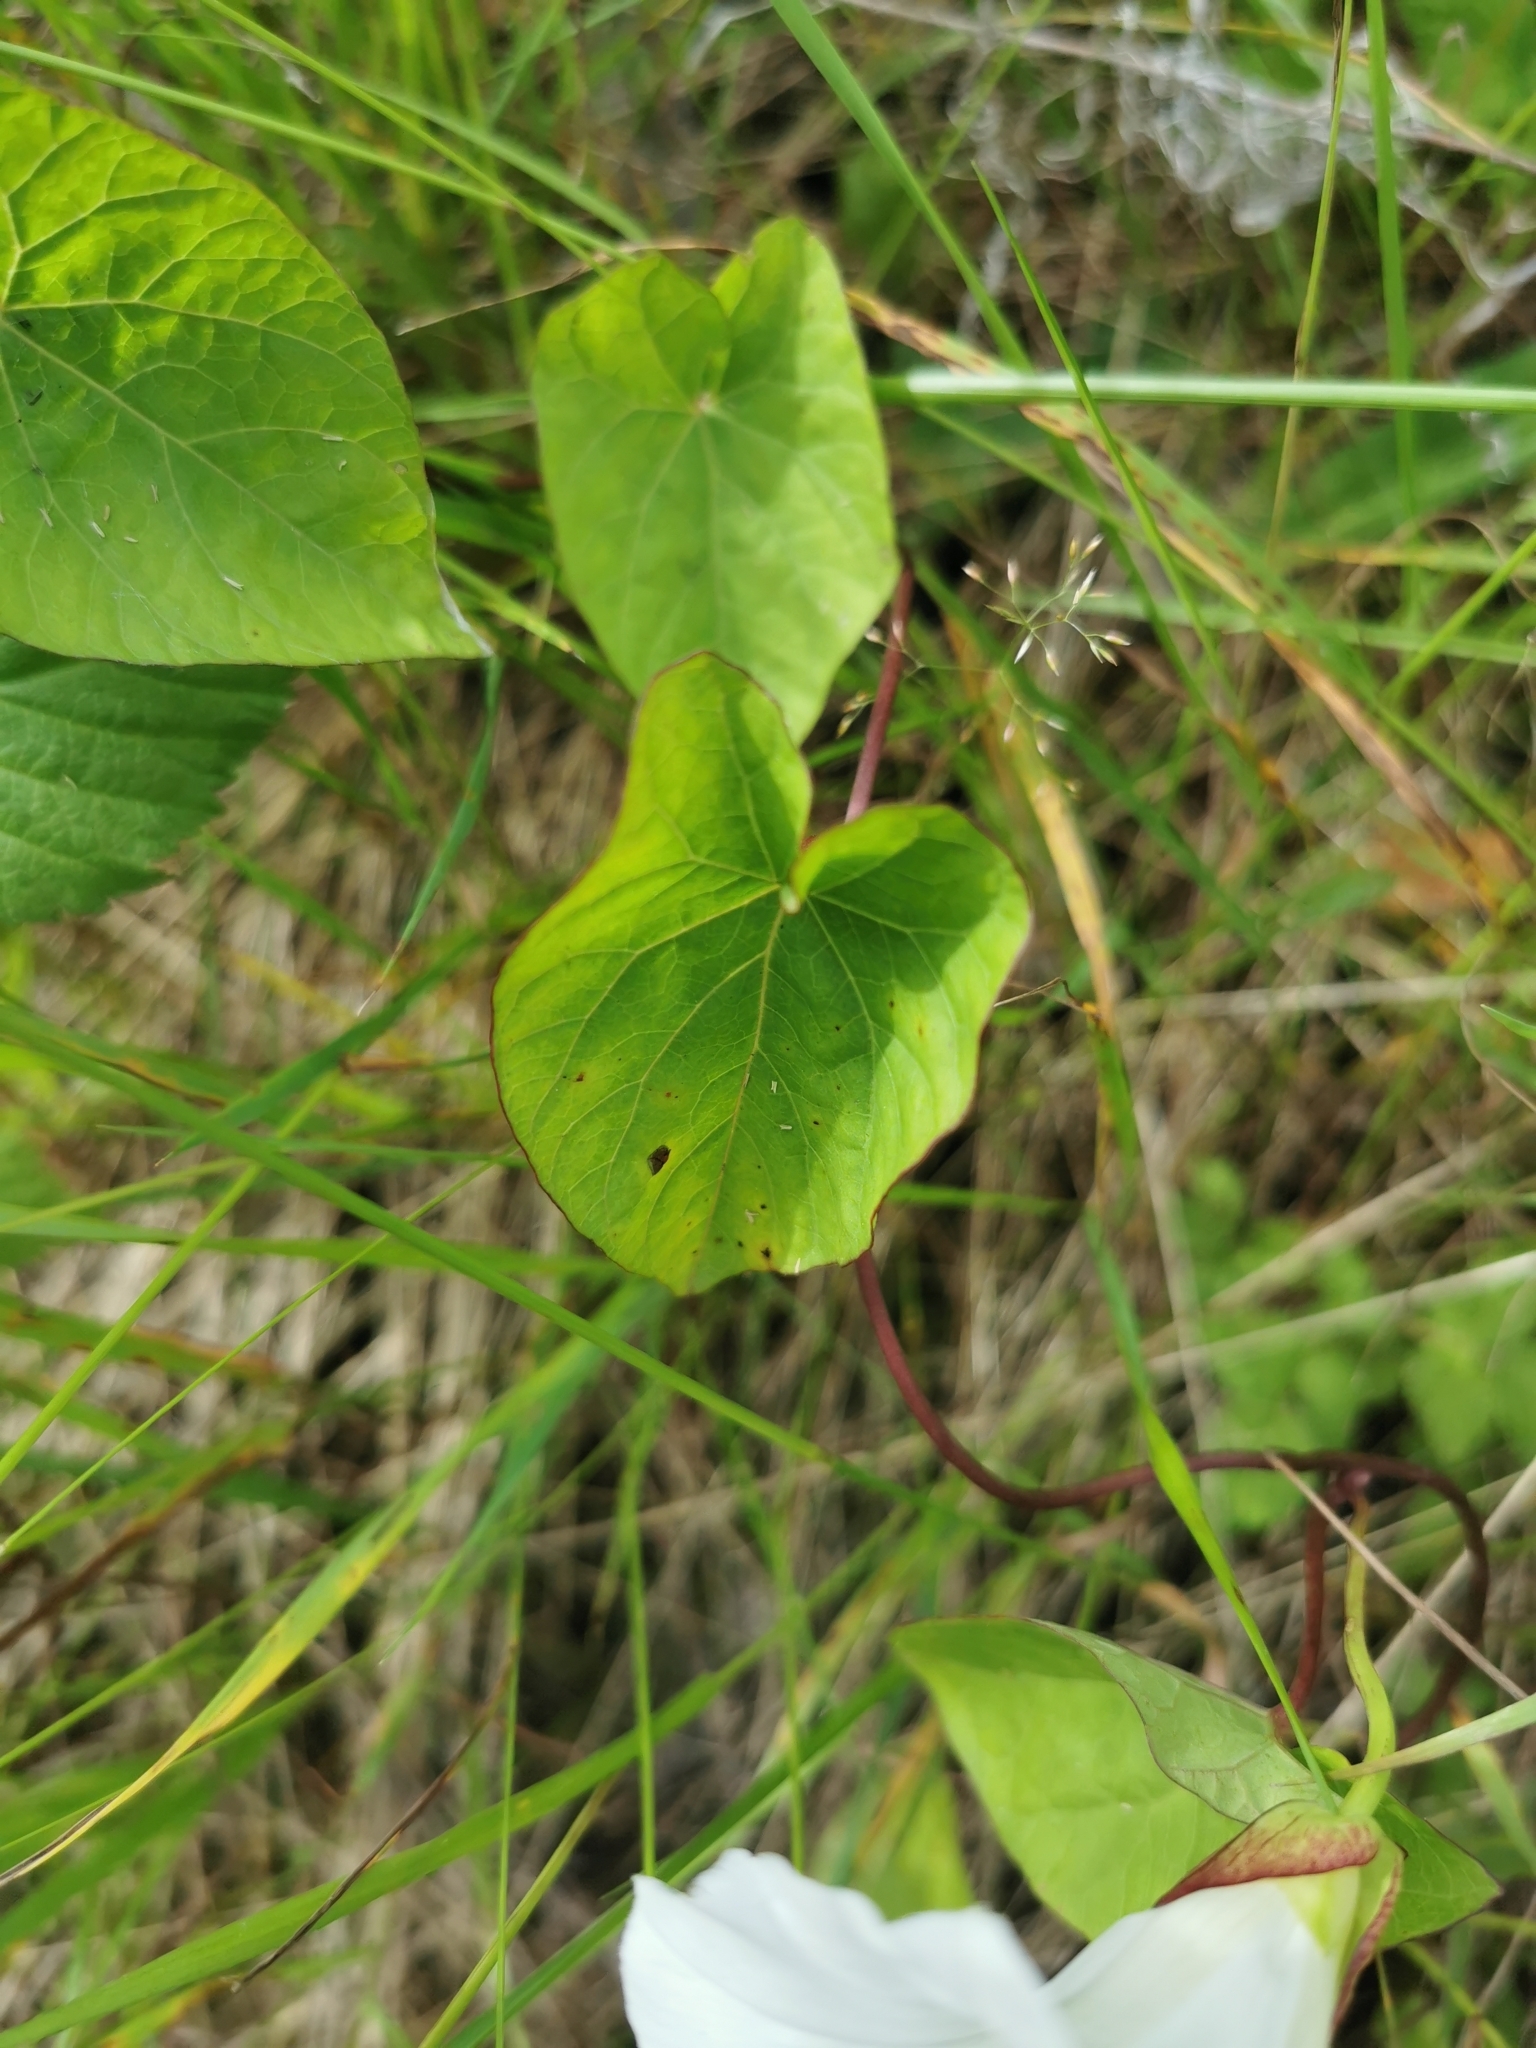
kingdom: Plantae
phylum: Tracheophyta
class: Magnoliopsida
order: Solanales
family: Convolvulaceae
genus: Calystegia
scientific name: Calystegia sepium
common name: Hedge bindweed
